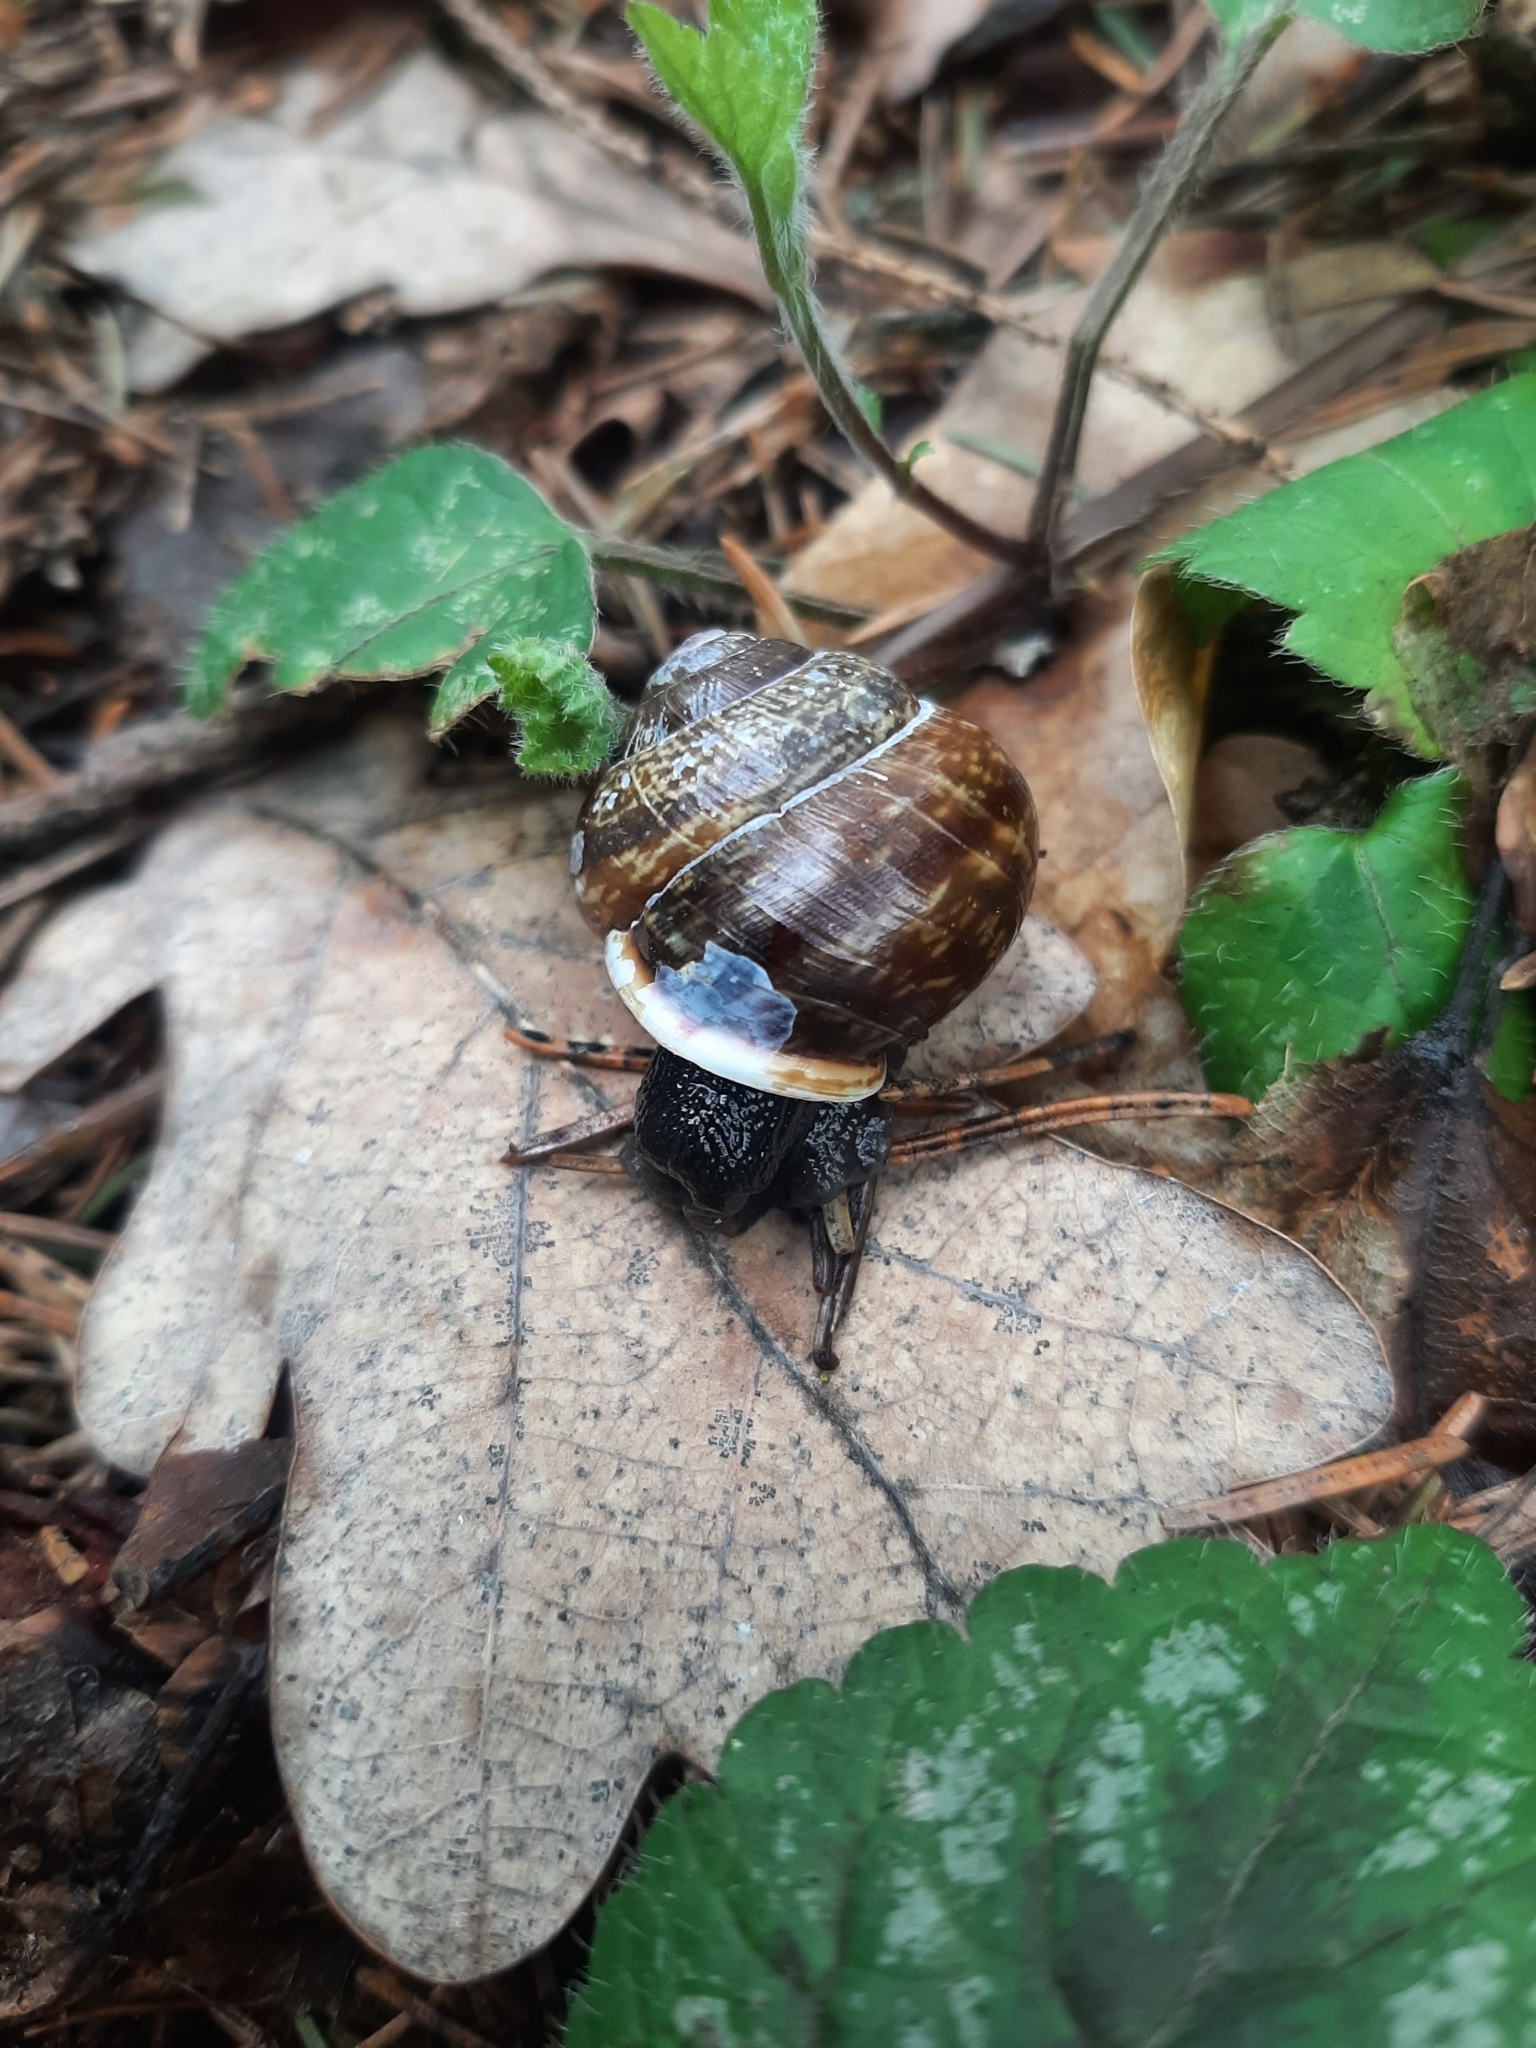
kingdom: Animalia
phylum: Mollusca
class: Gastropoda
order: Stylommatophora
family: Helicidae
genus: Arianta
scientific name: Arianta arbustorum
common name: Copse snail
